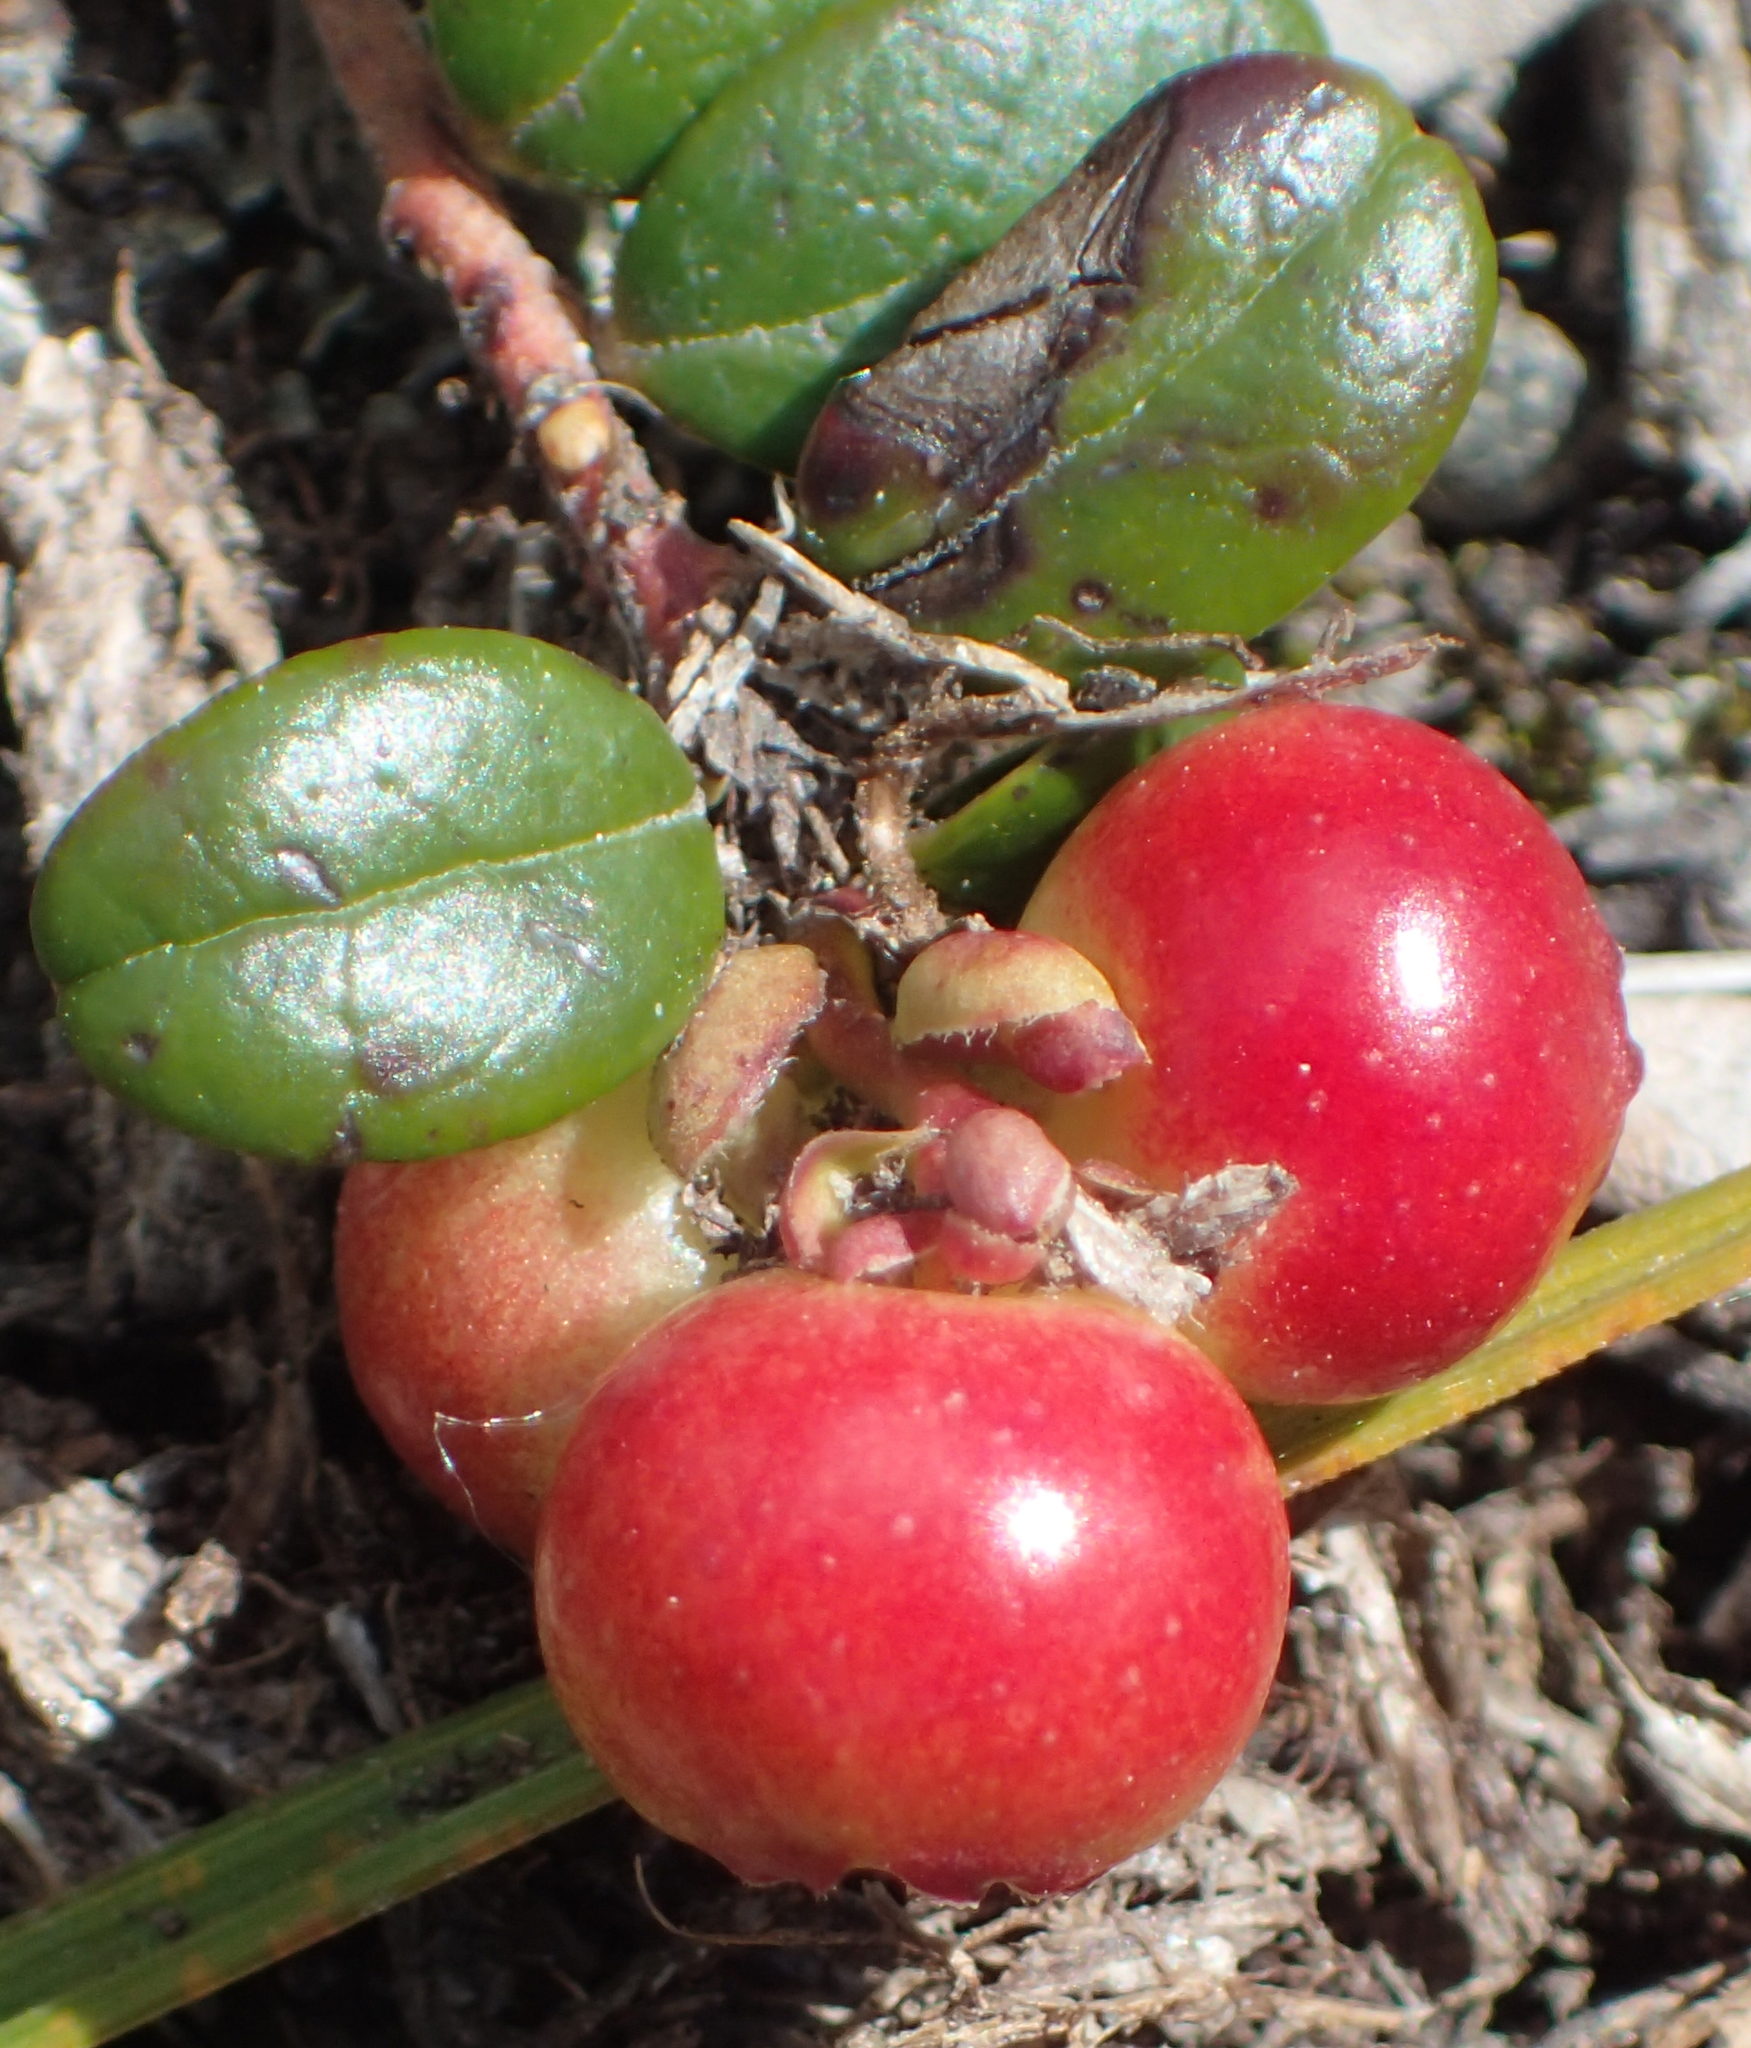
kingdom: Plantae
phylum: Tracheophyta
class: Magnoliopsida
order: Ericales
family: Ericaceae
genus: Vaccinium
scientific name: Vaccinium vitis-idaea
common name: Cowberry
